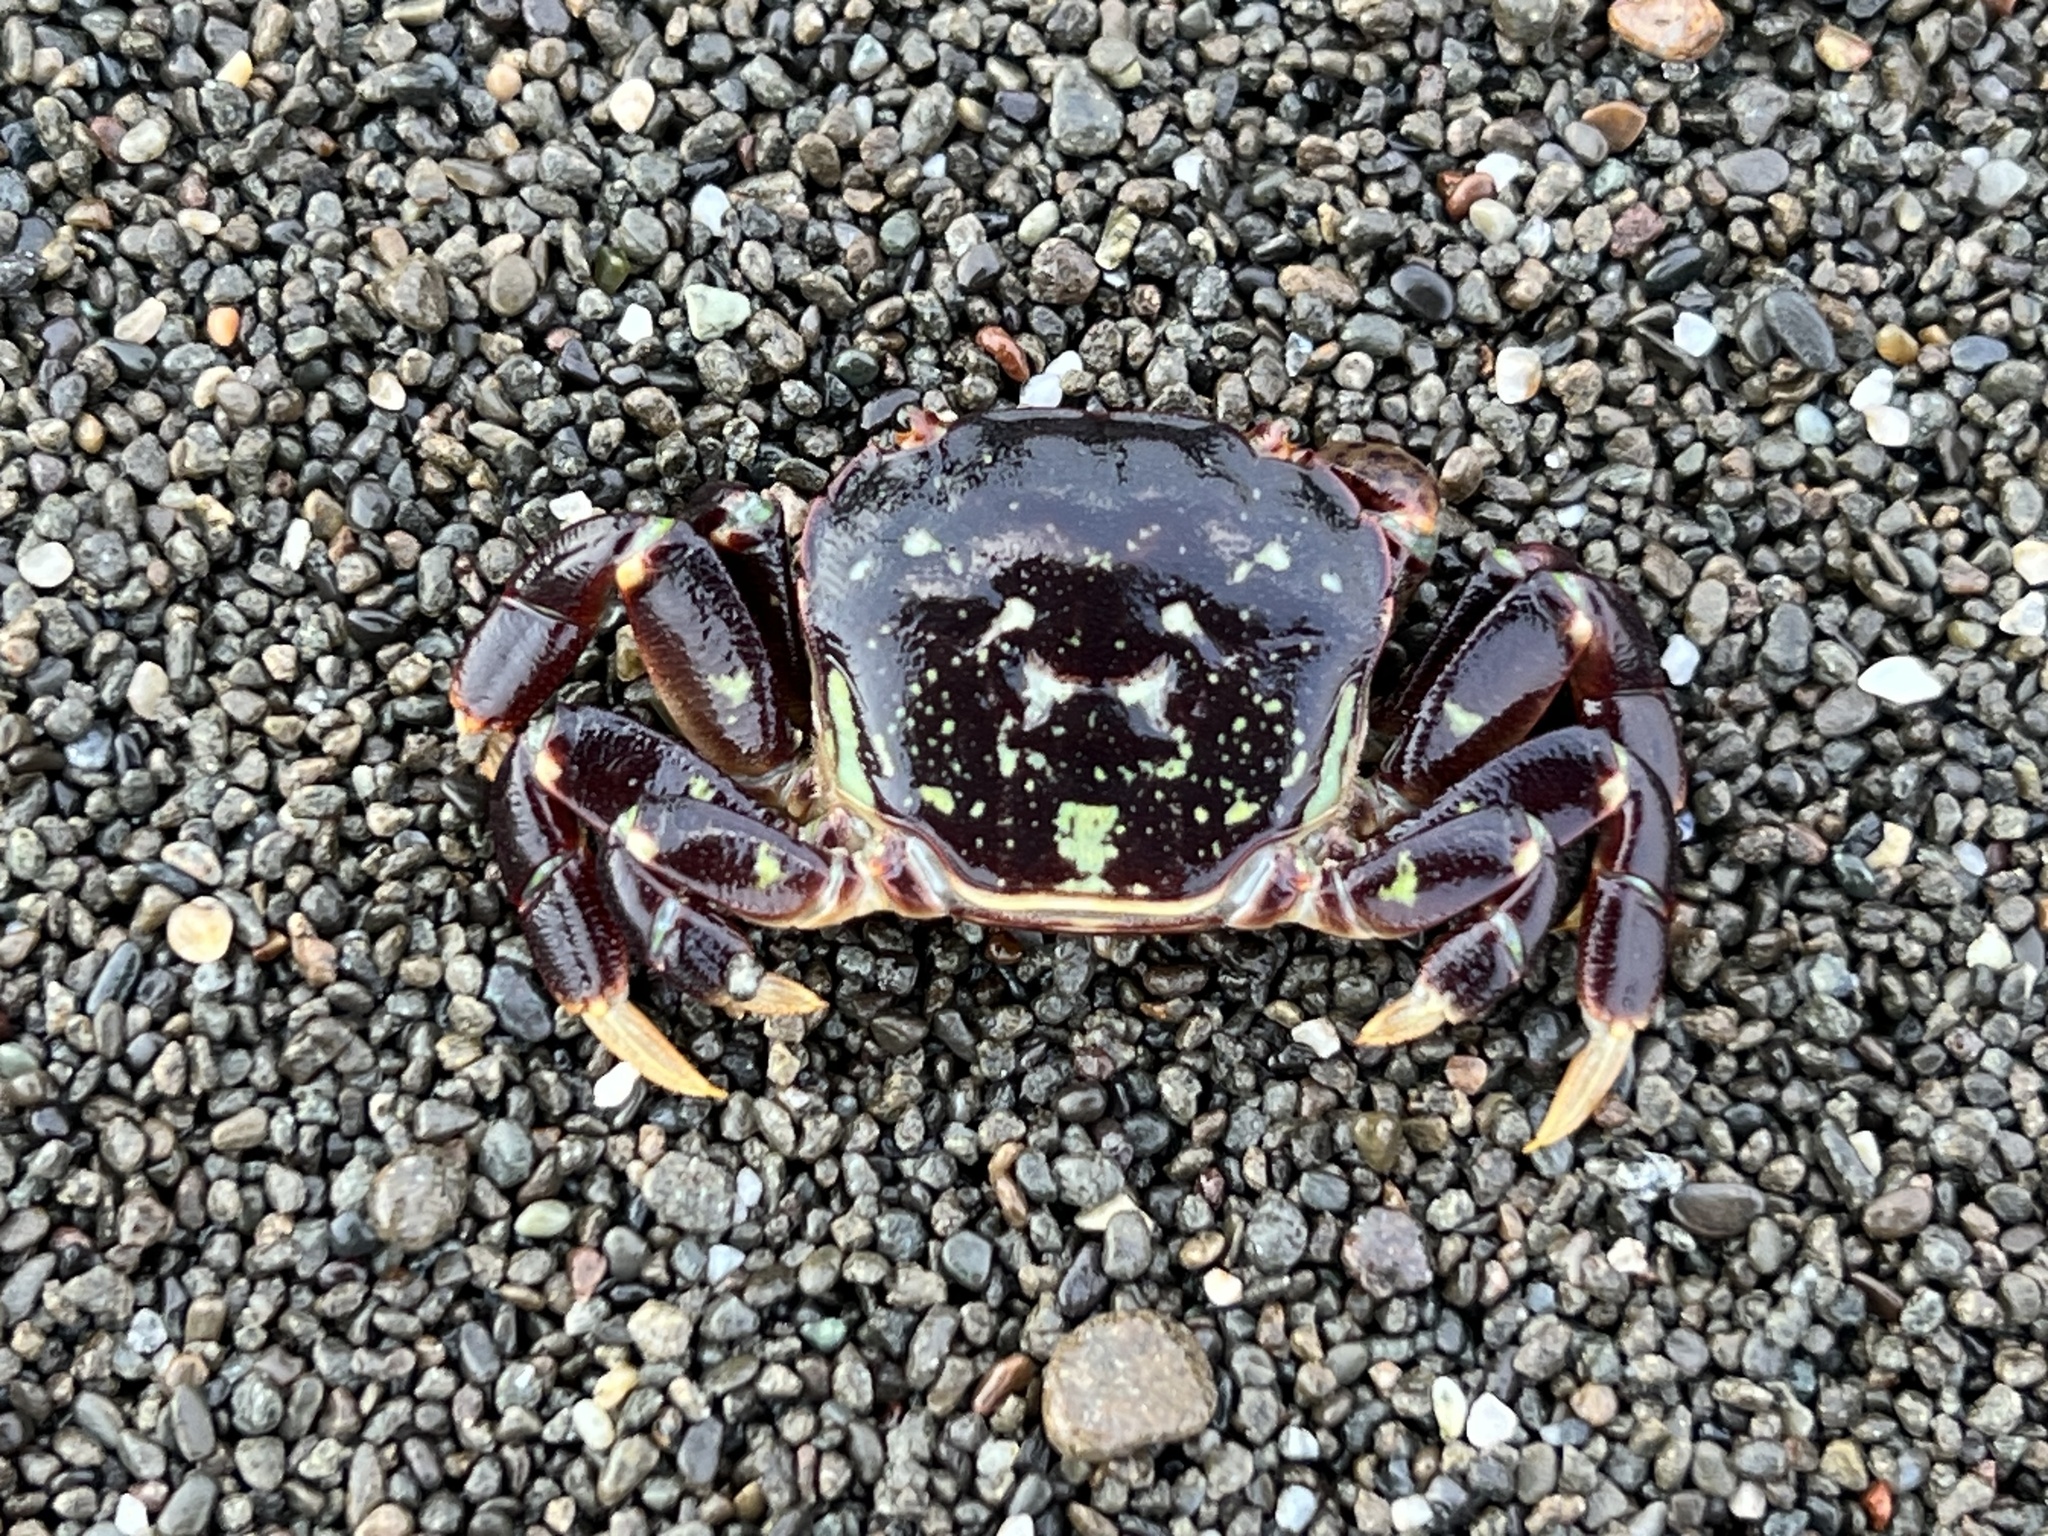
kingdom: Animalia
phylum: Arthropoda
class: Malacostraca
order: Decapoda
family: Varunidae
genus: Hemigrapsus
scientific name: Hemigrapsus nudus
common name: Purple shore crab
